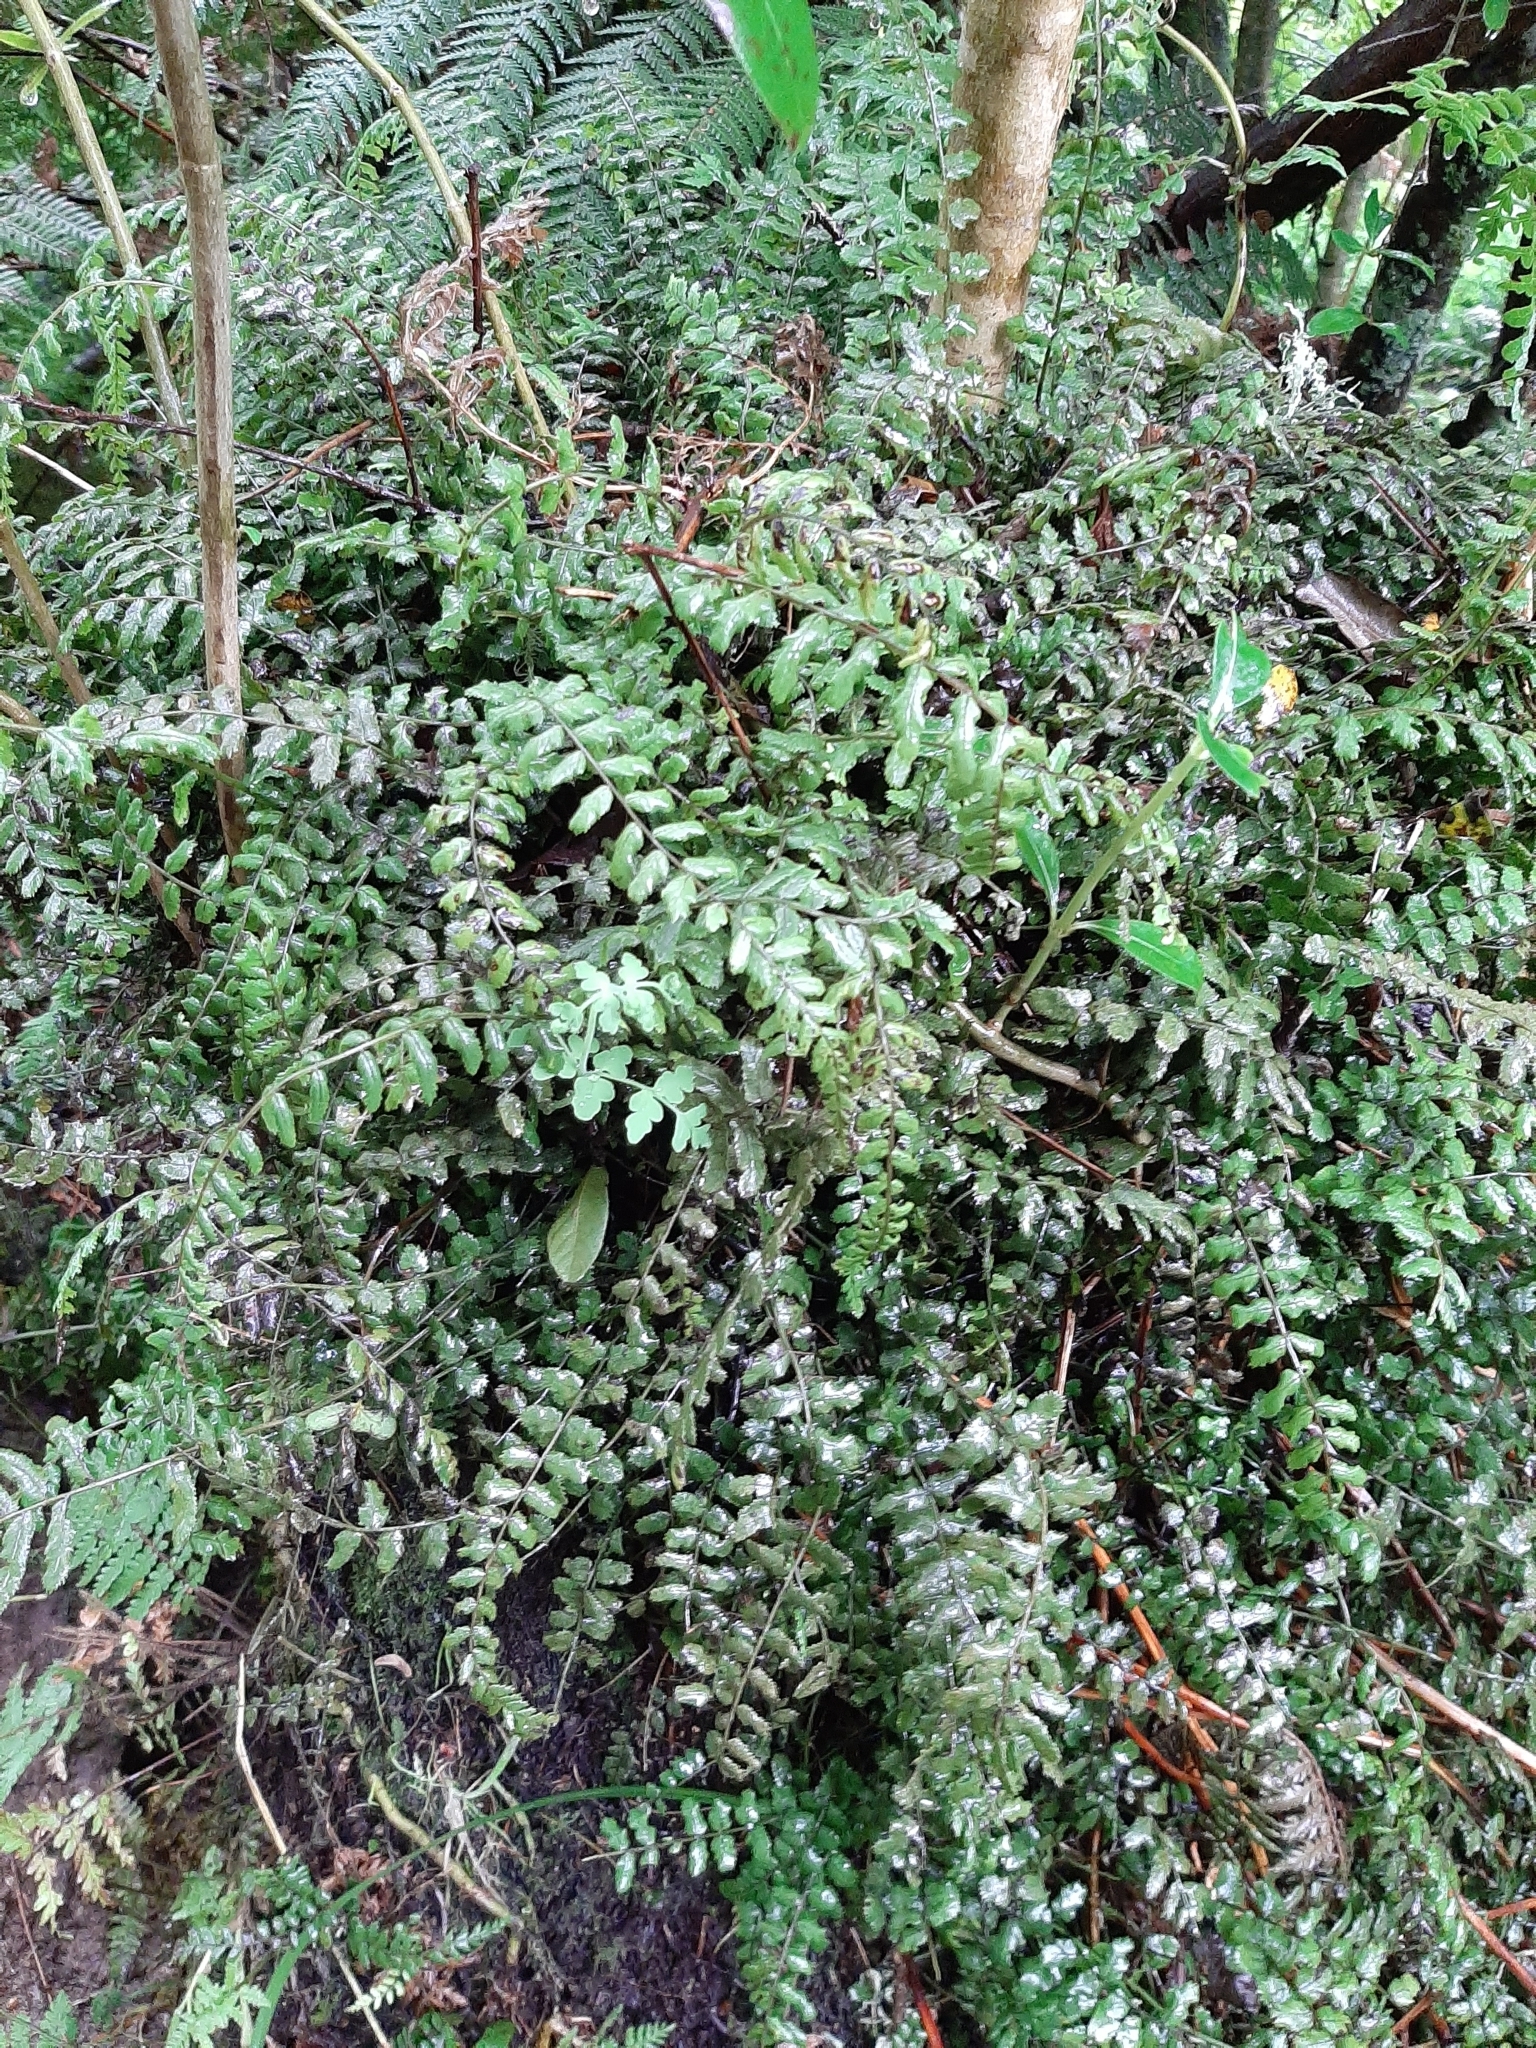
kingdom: Plantae
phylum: Tracheophyta
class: Polypodiopsida
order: Polypodiales
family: Blechnaceae
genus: Icarus
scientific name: Icarus filiformis
